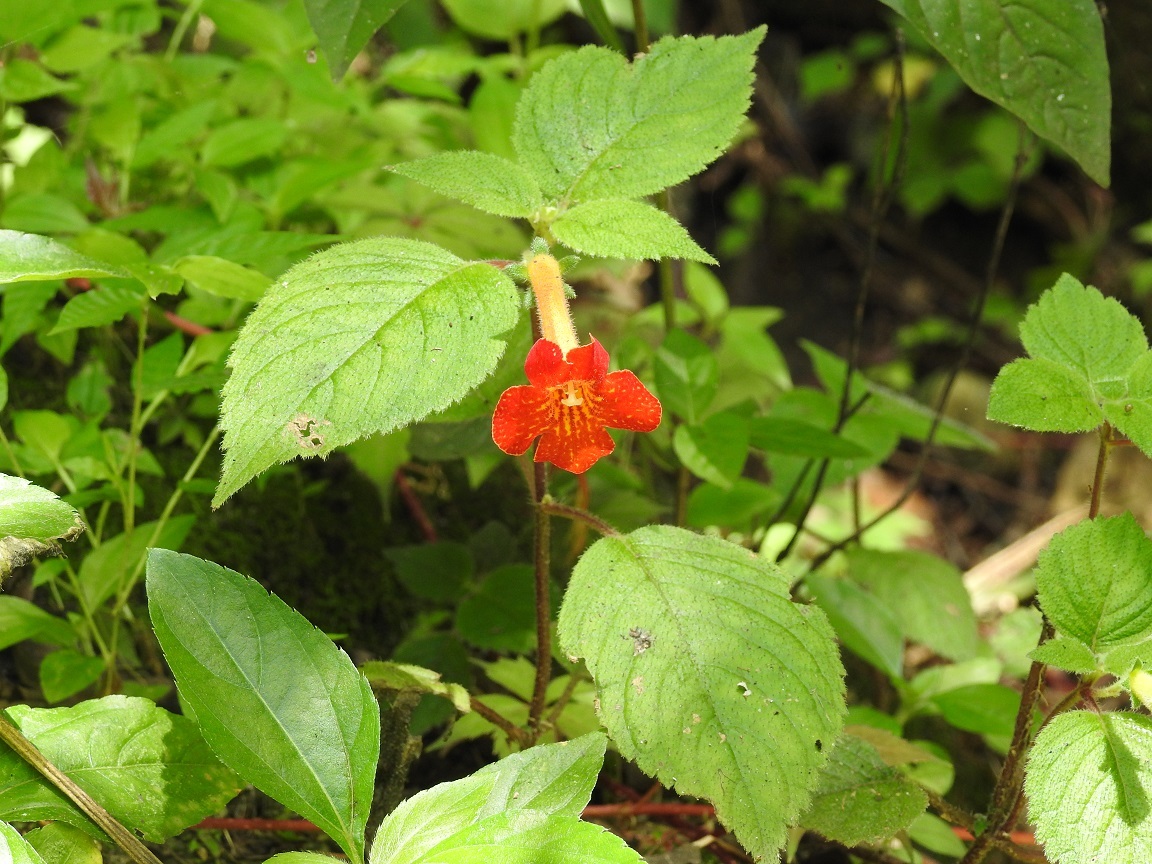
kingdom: Plantae
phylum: Tracheophyta
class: Magnoliopsida
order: Lamiales
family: Gesneriaceae
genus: Achimenes
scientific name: Achimenes antirrhina
